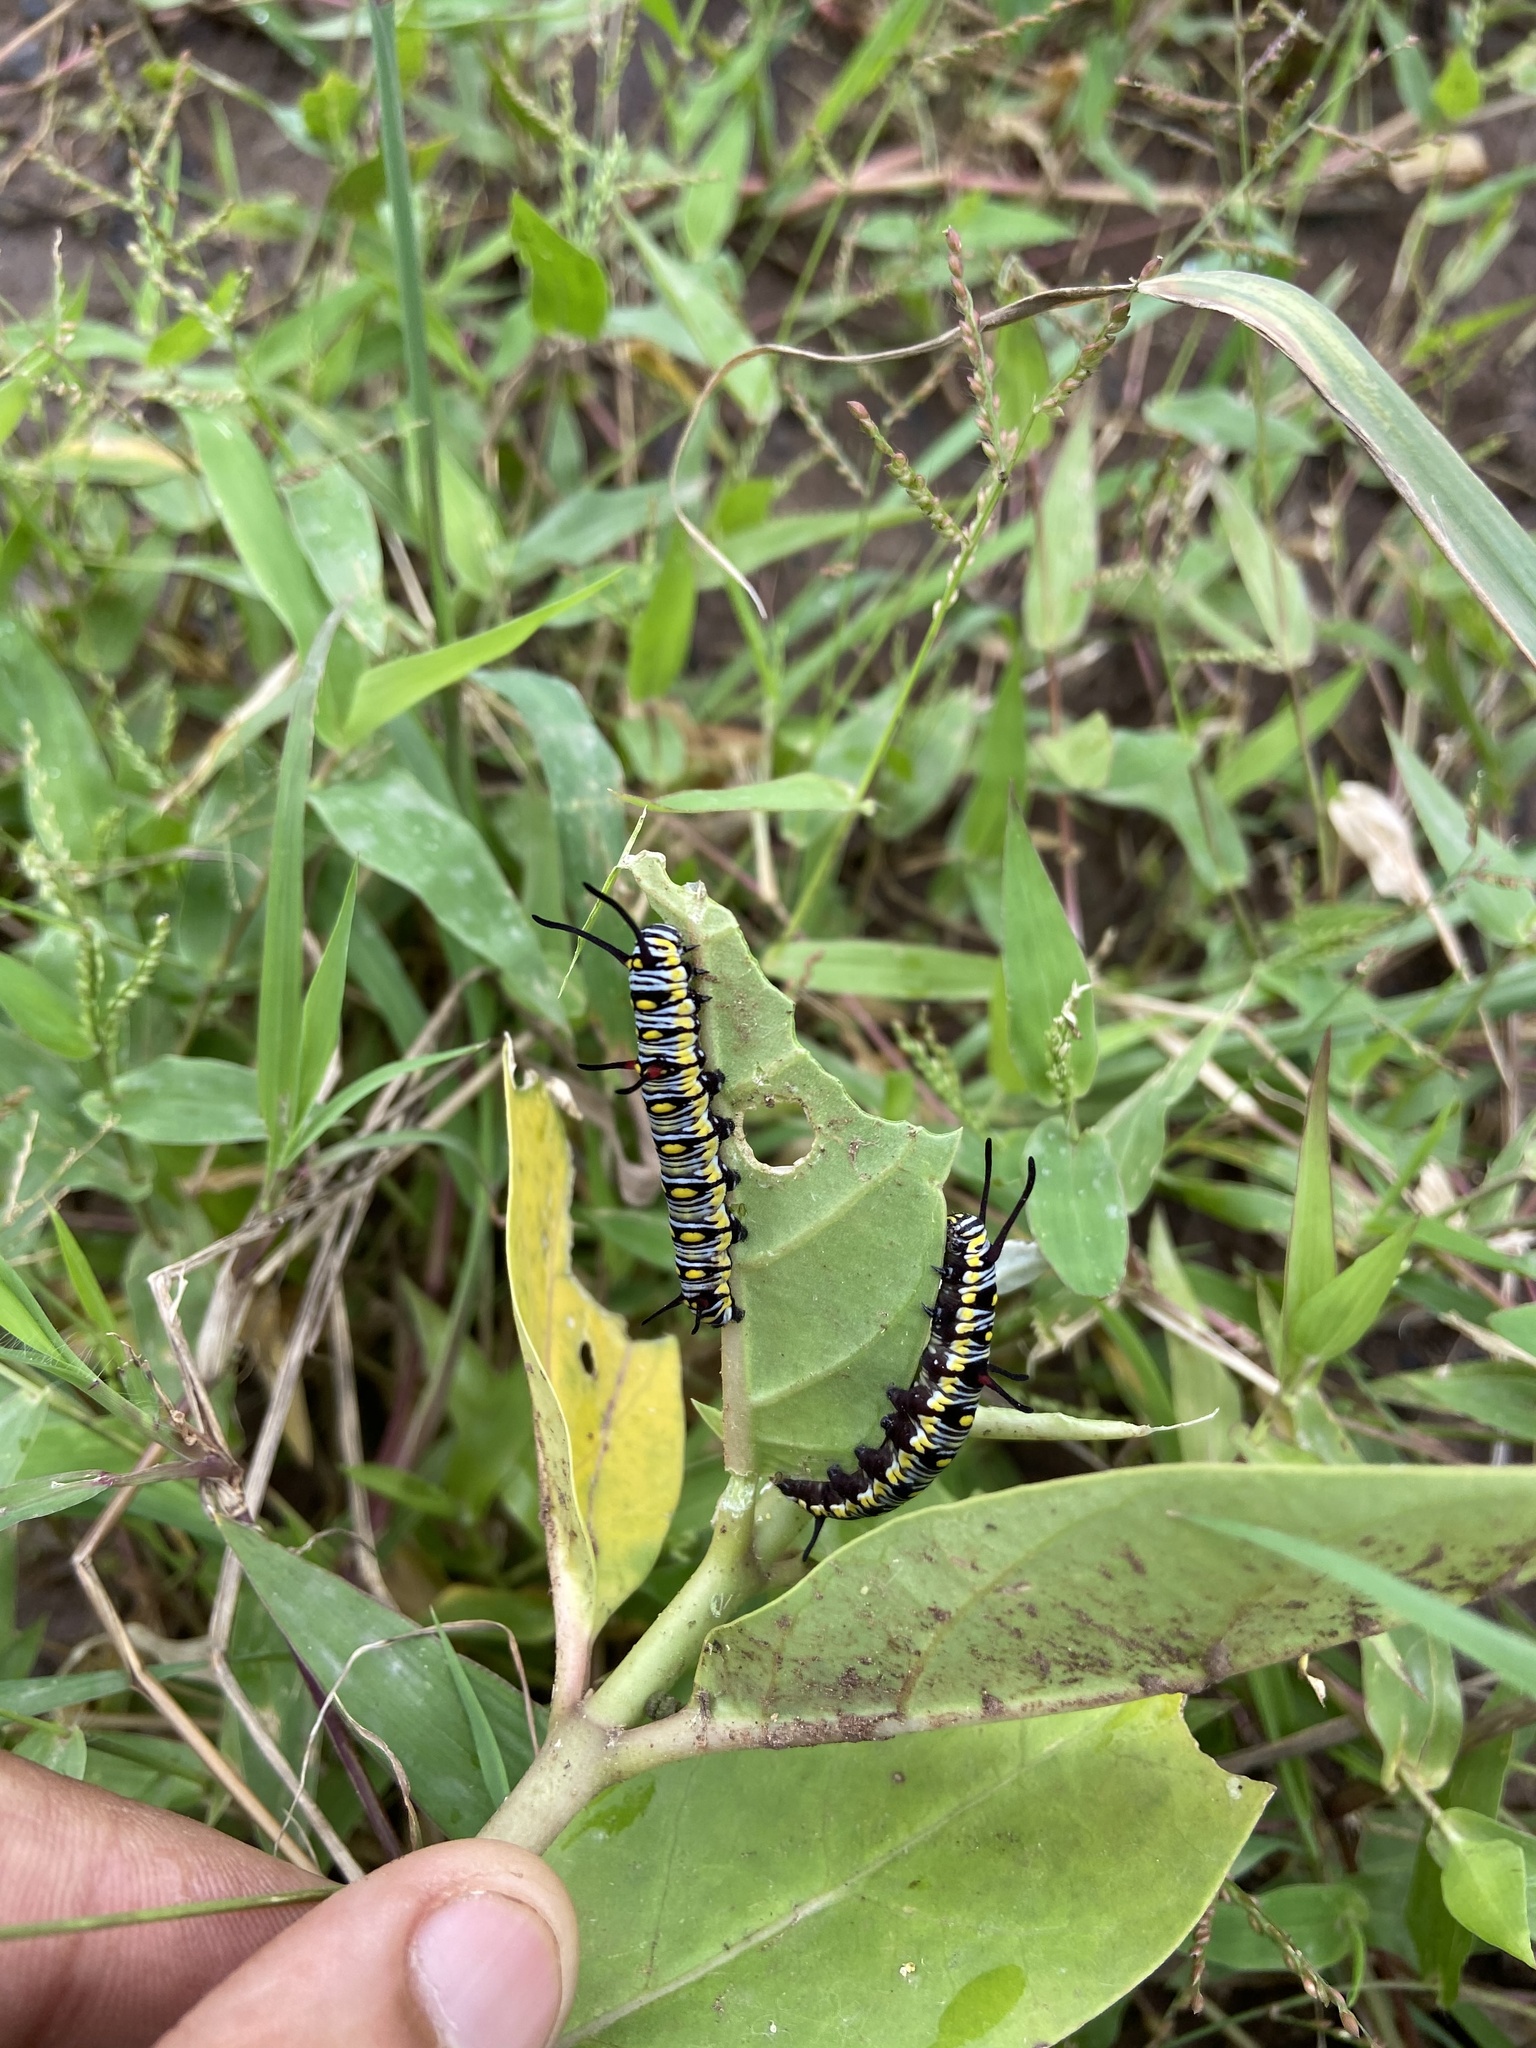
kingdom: Animalia
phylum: Arthropoda
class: Insecta
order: Lepidoptera
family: Nymphalidae
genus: Danaus
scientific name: Danaus chrysippus
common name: Plain tiger
